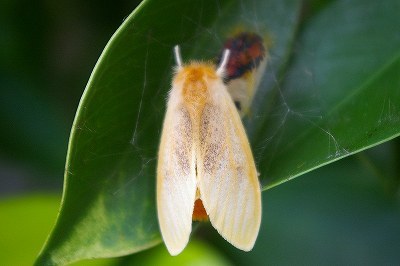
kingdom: Animalia
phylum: Arthropoda
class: Insecta
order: Lepidoptera
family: Erebidae
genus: Perina
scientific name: Perina nuda
